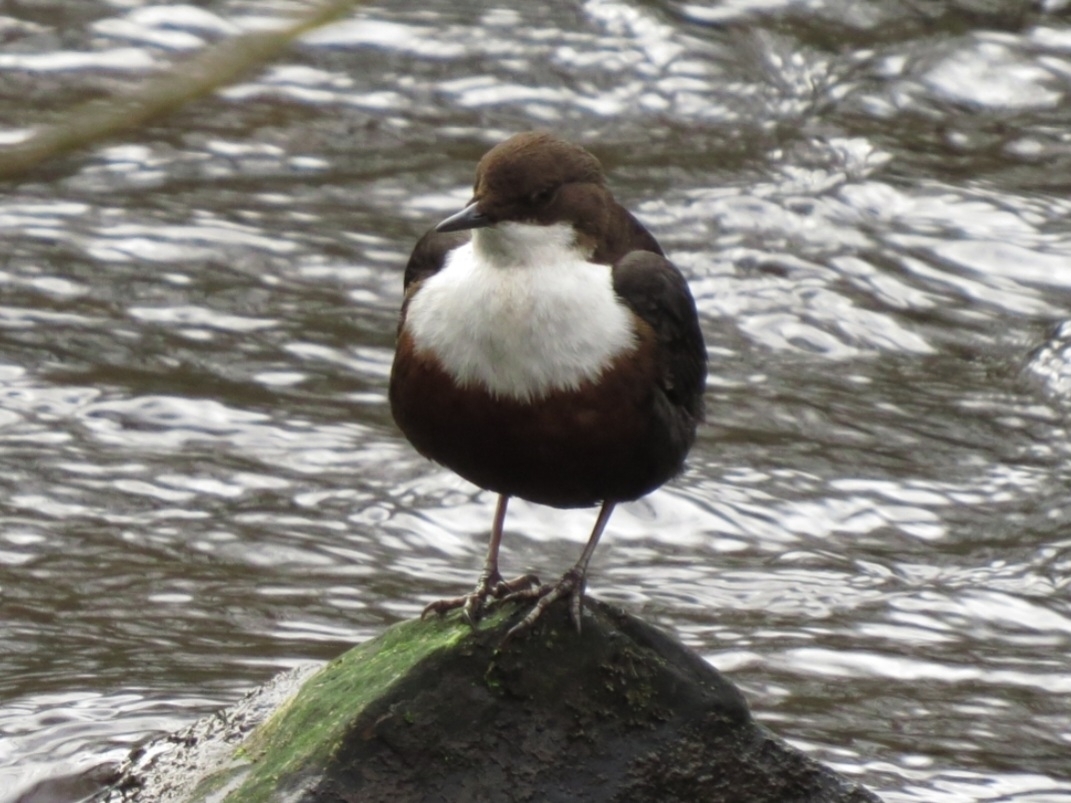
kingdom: Animalia
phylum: Chordata
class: Aves
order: Passeriformes
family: Cinclidae
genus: Cinclus
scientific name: Cinclus cinclus
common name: White-throated dipper
